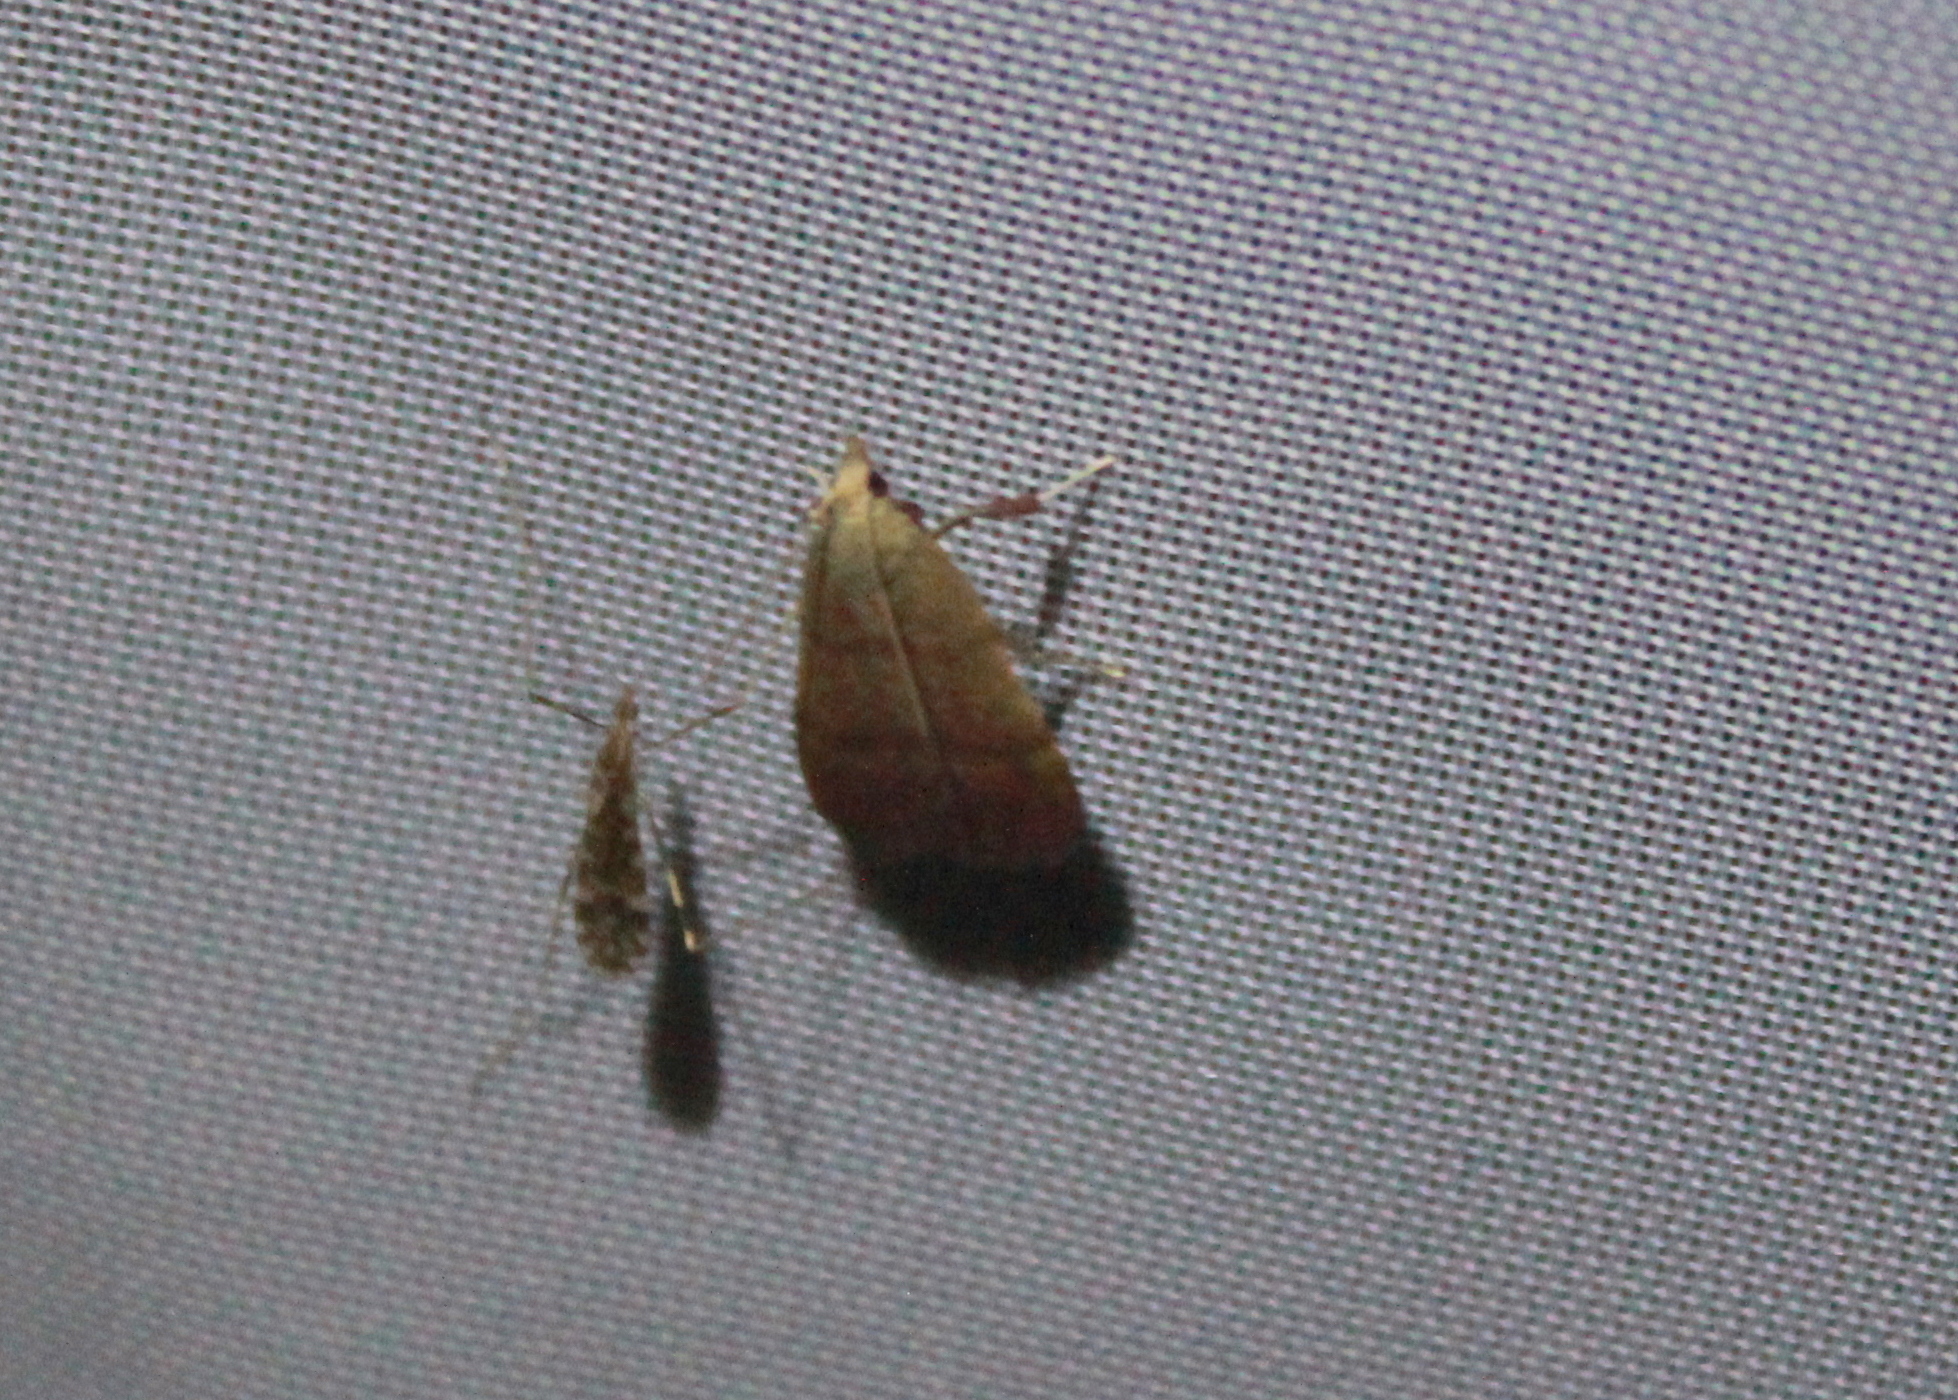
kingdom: Animalia
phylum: Arthropoda
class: Insecta
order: Lepidoptera
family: Pyralidae
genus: Condylolomia
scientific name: Condylolomia participialis
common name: Drab condylolomia moth
